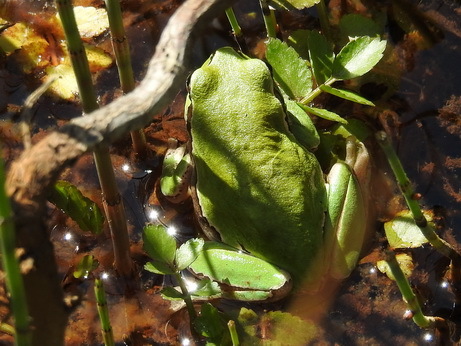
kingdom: Animalia
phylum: Chordata
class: Amphibia
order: Anura
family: Hylidae
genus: Hyla
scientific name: Hyla felixarabica
